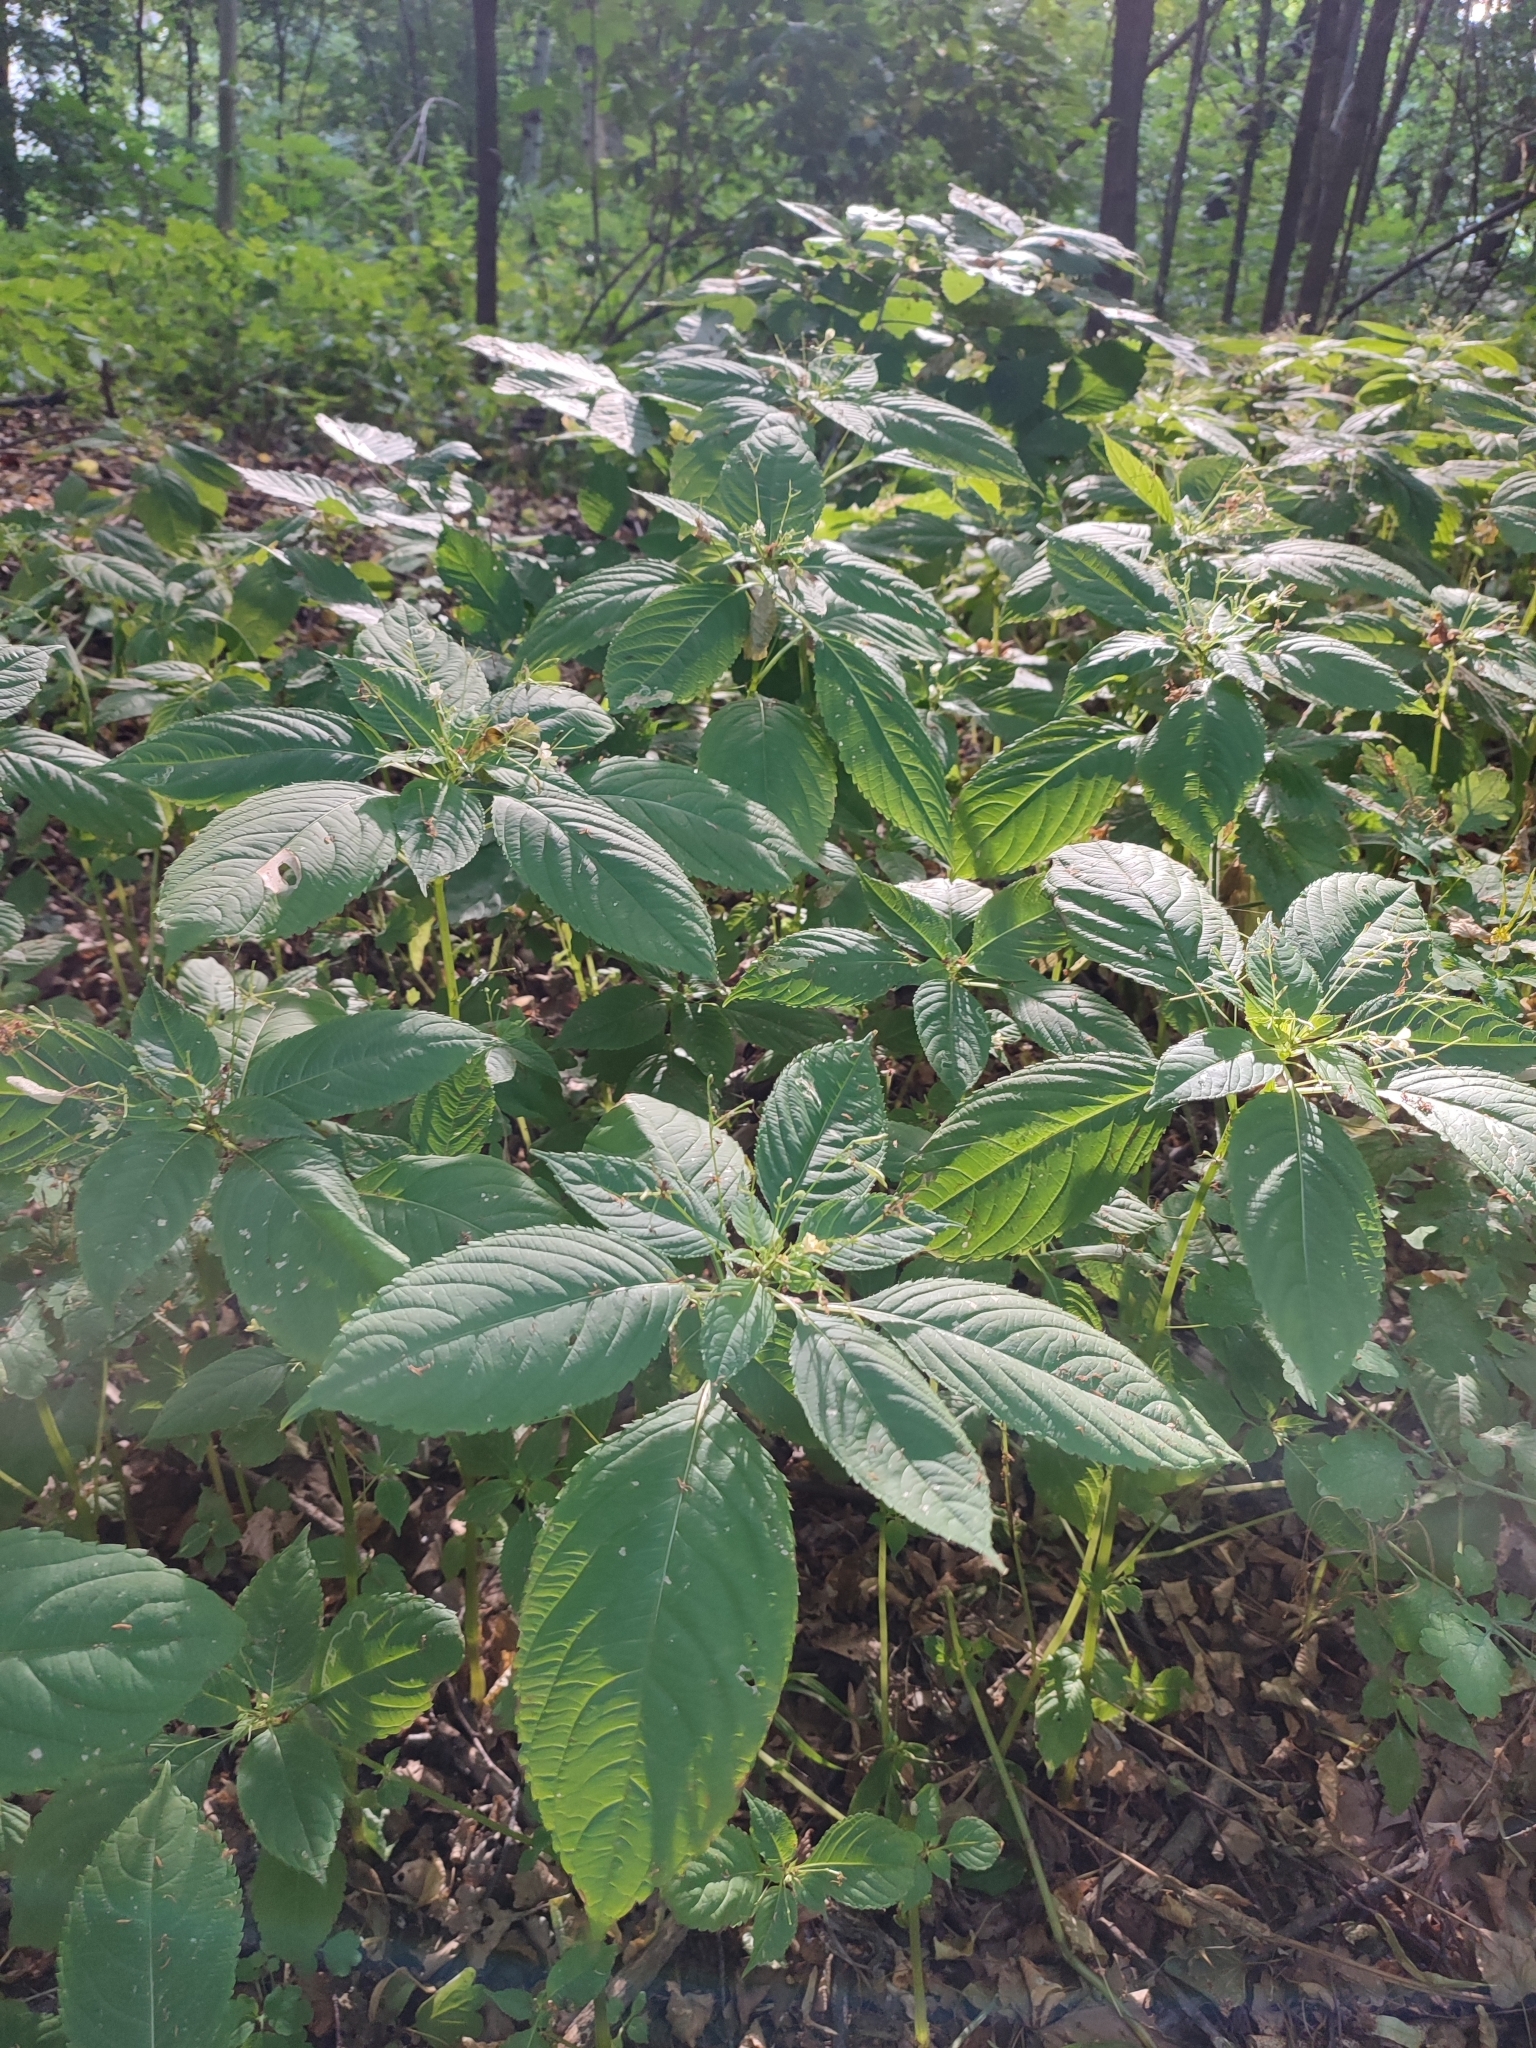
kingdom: Plantae
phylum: Tracheophyta
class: Magnoliopsida
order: Ericales
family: Balsaminaceae
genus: Impatiens
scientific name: Impatiens parviflora
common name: Small balsam
